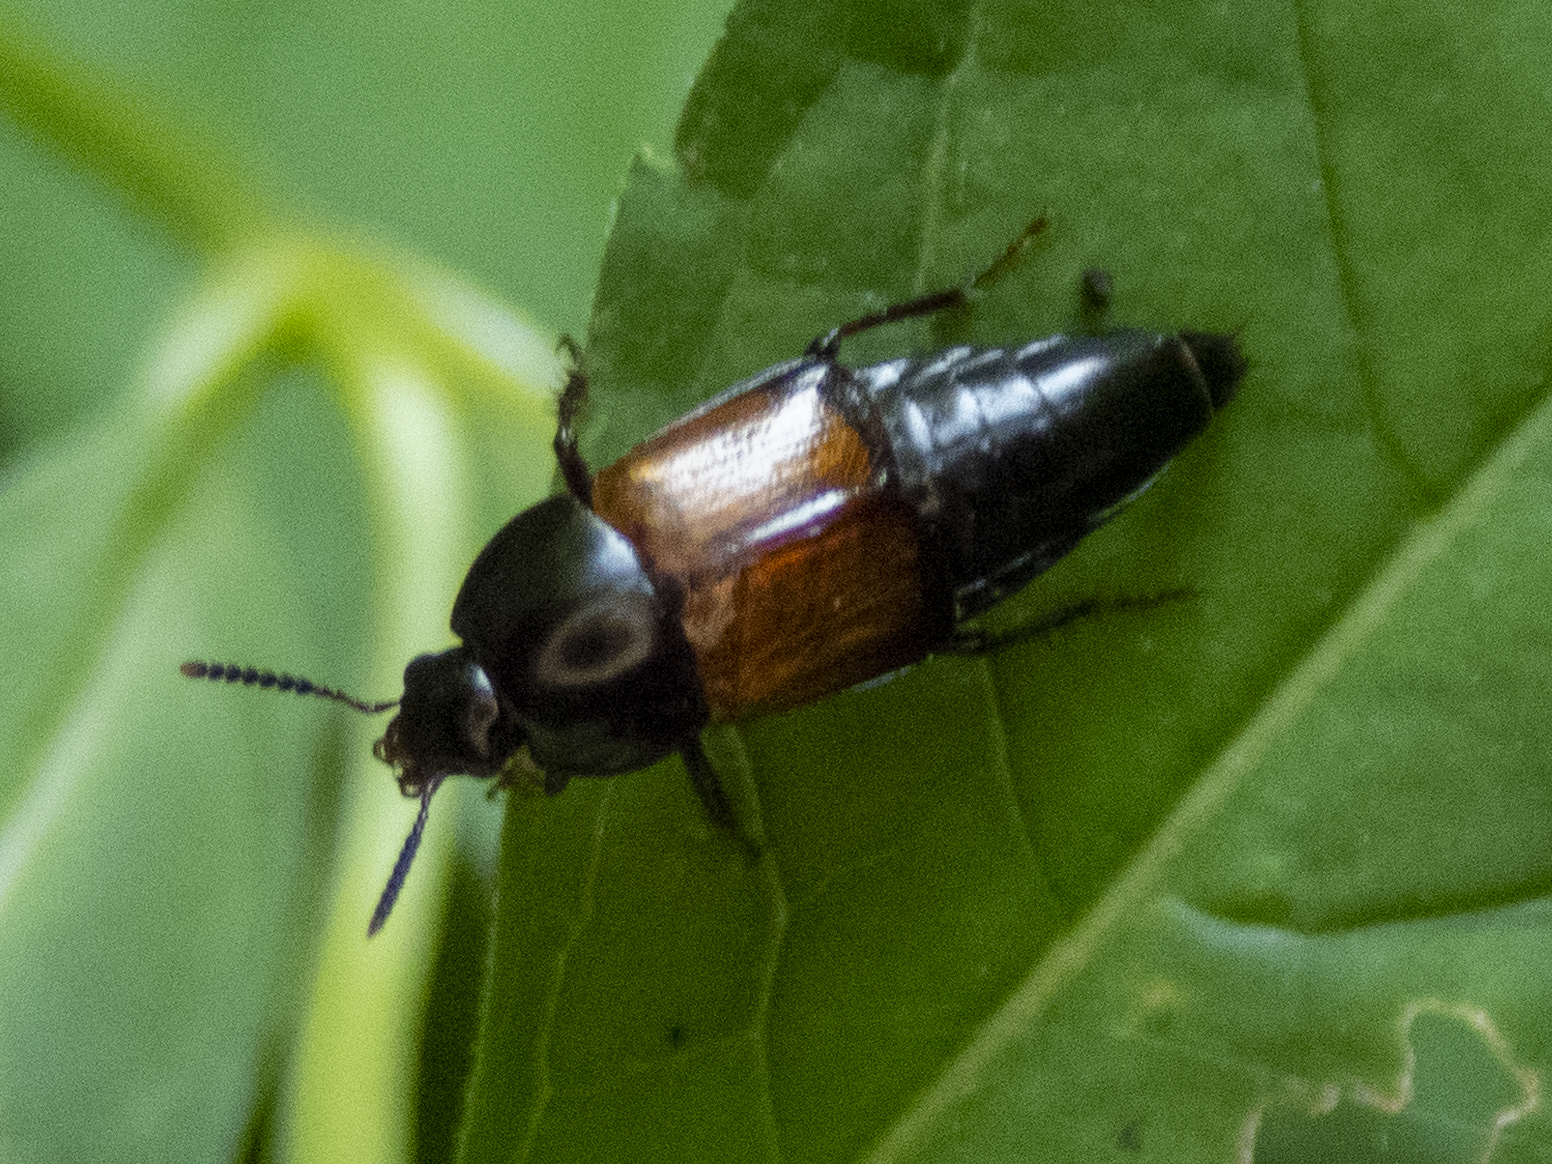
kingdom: Animalia
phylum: Arthropoda
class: Insecta
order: Coleoptera
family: Staphylinidae
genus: Tachinus
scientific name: Tachinus fimbriatus
